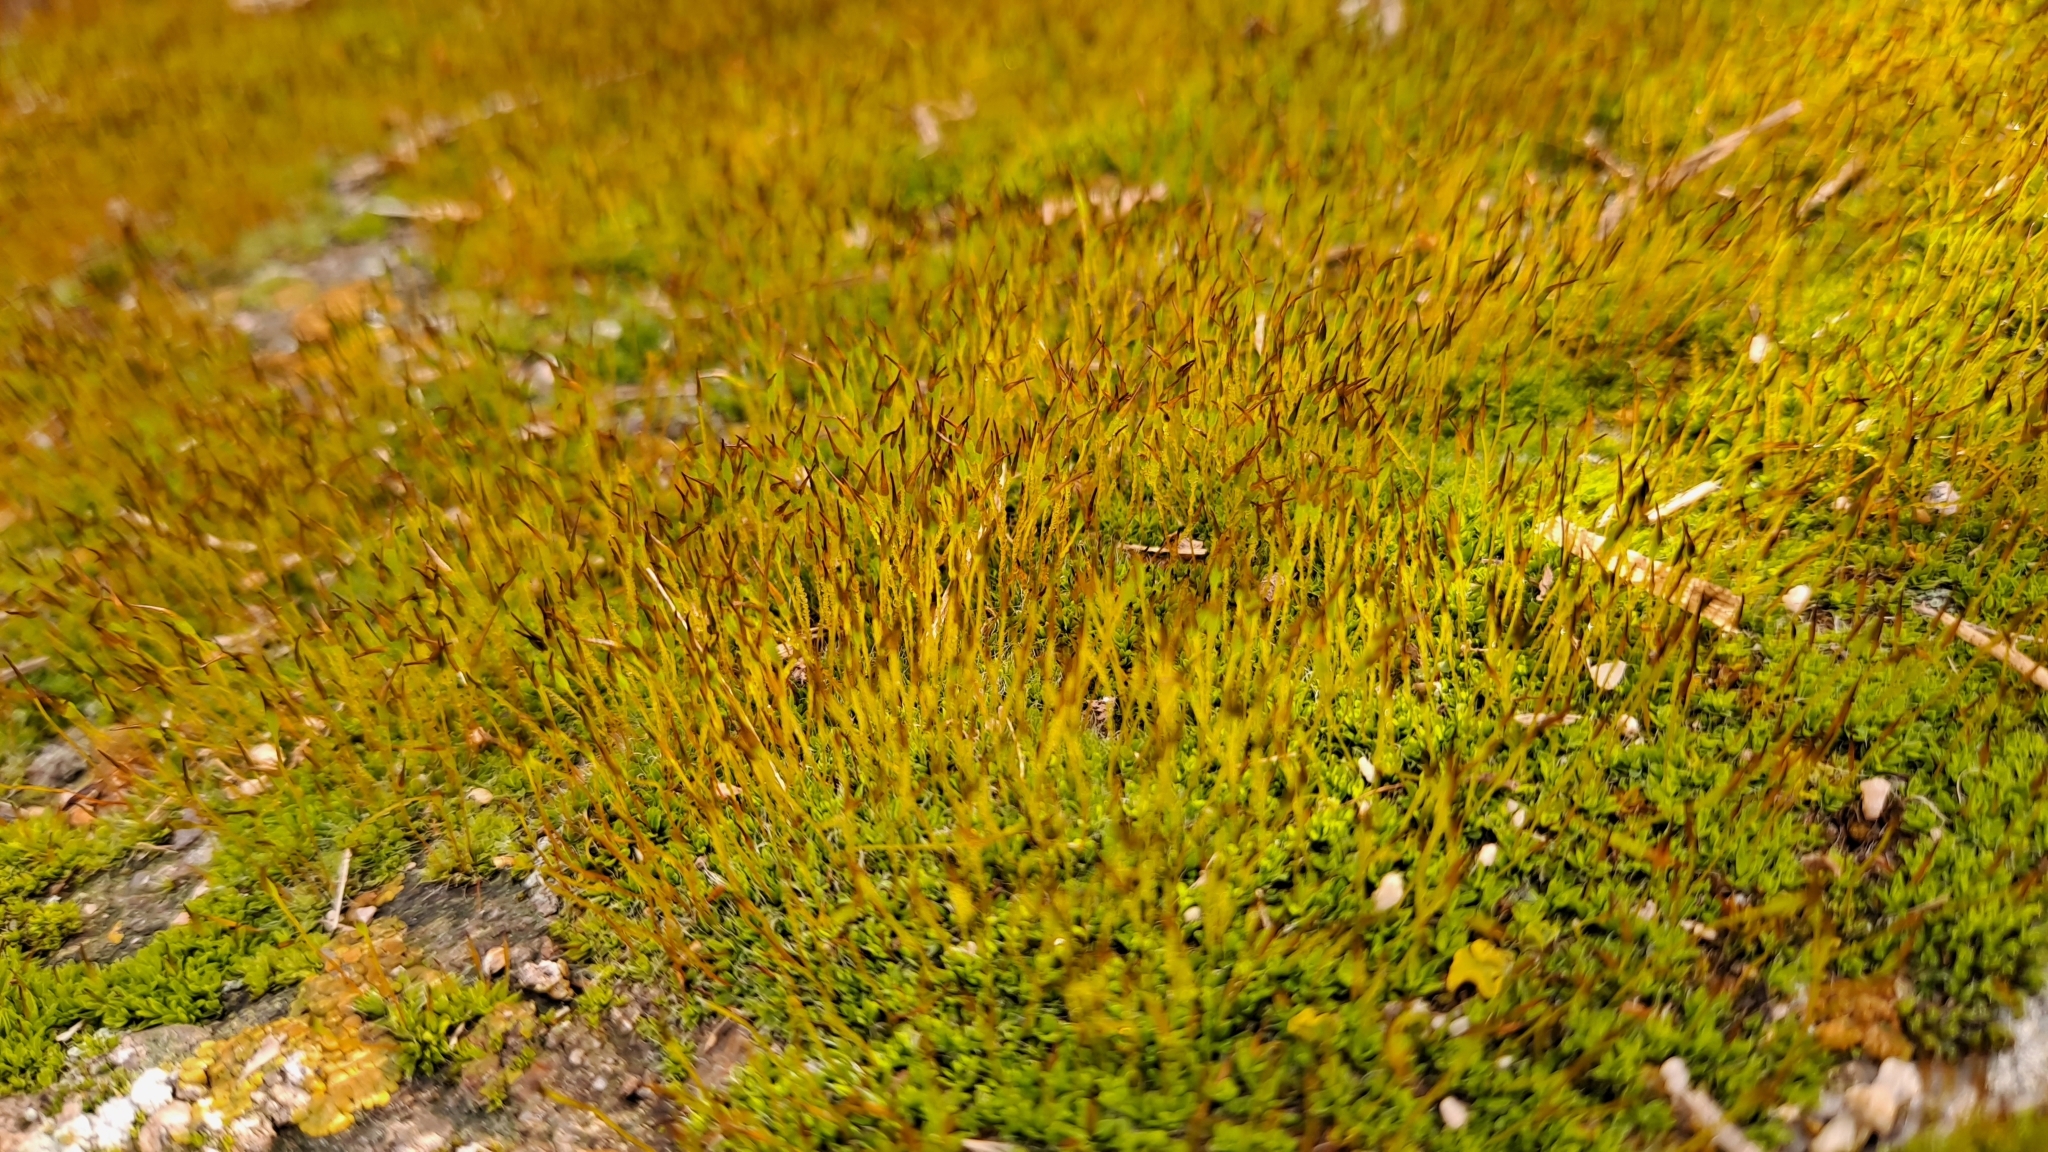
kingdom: Plantae
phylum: Bryophyta
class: Bryopsida
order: Pottiales
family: Pottiaceae
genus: Tortula
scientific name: Tortula muralis
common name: Wall screw-moss
